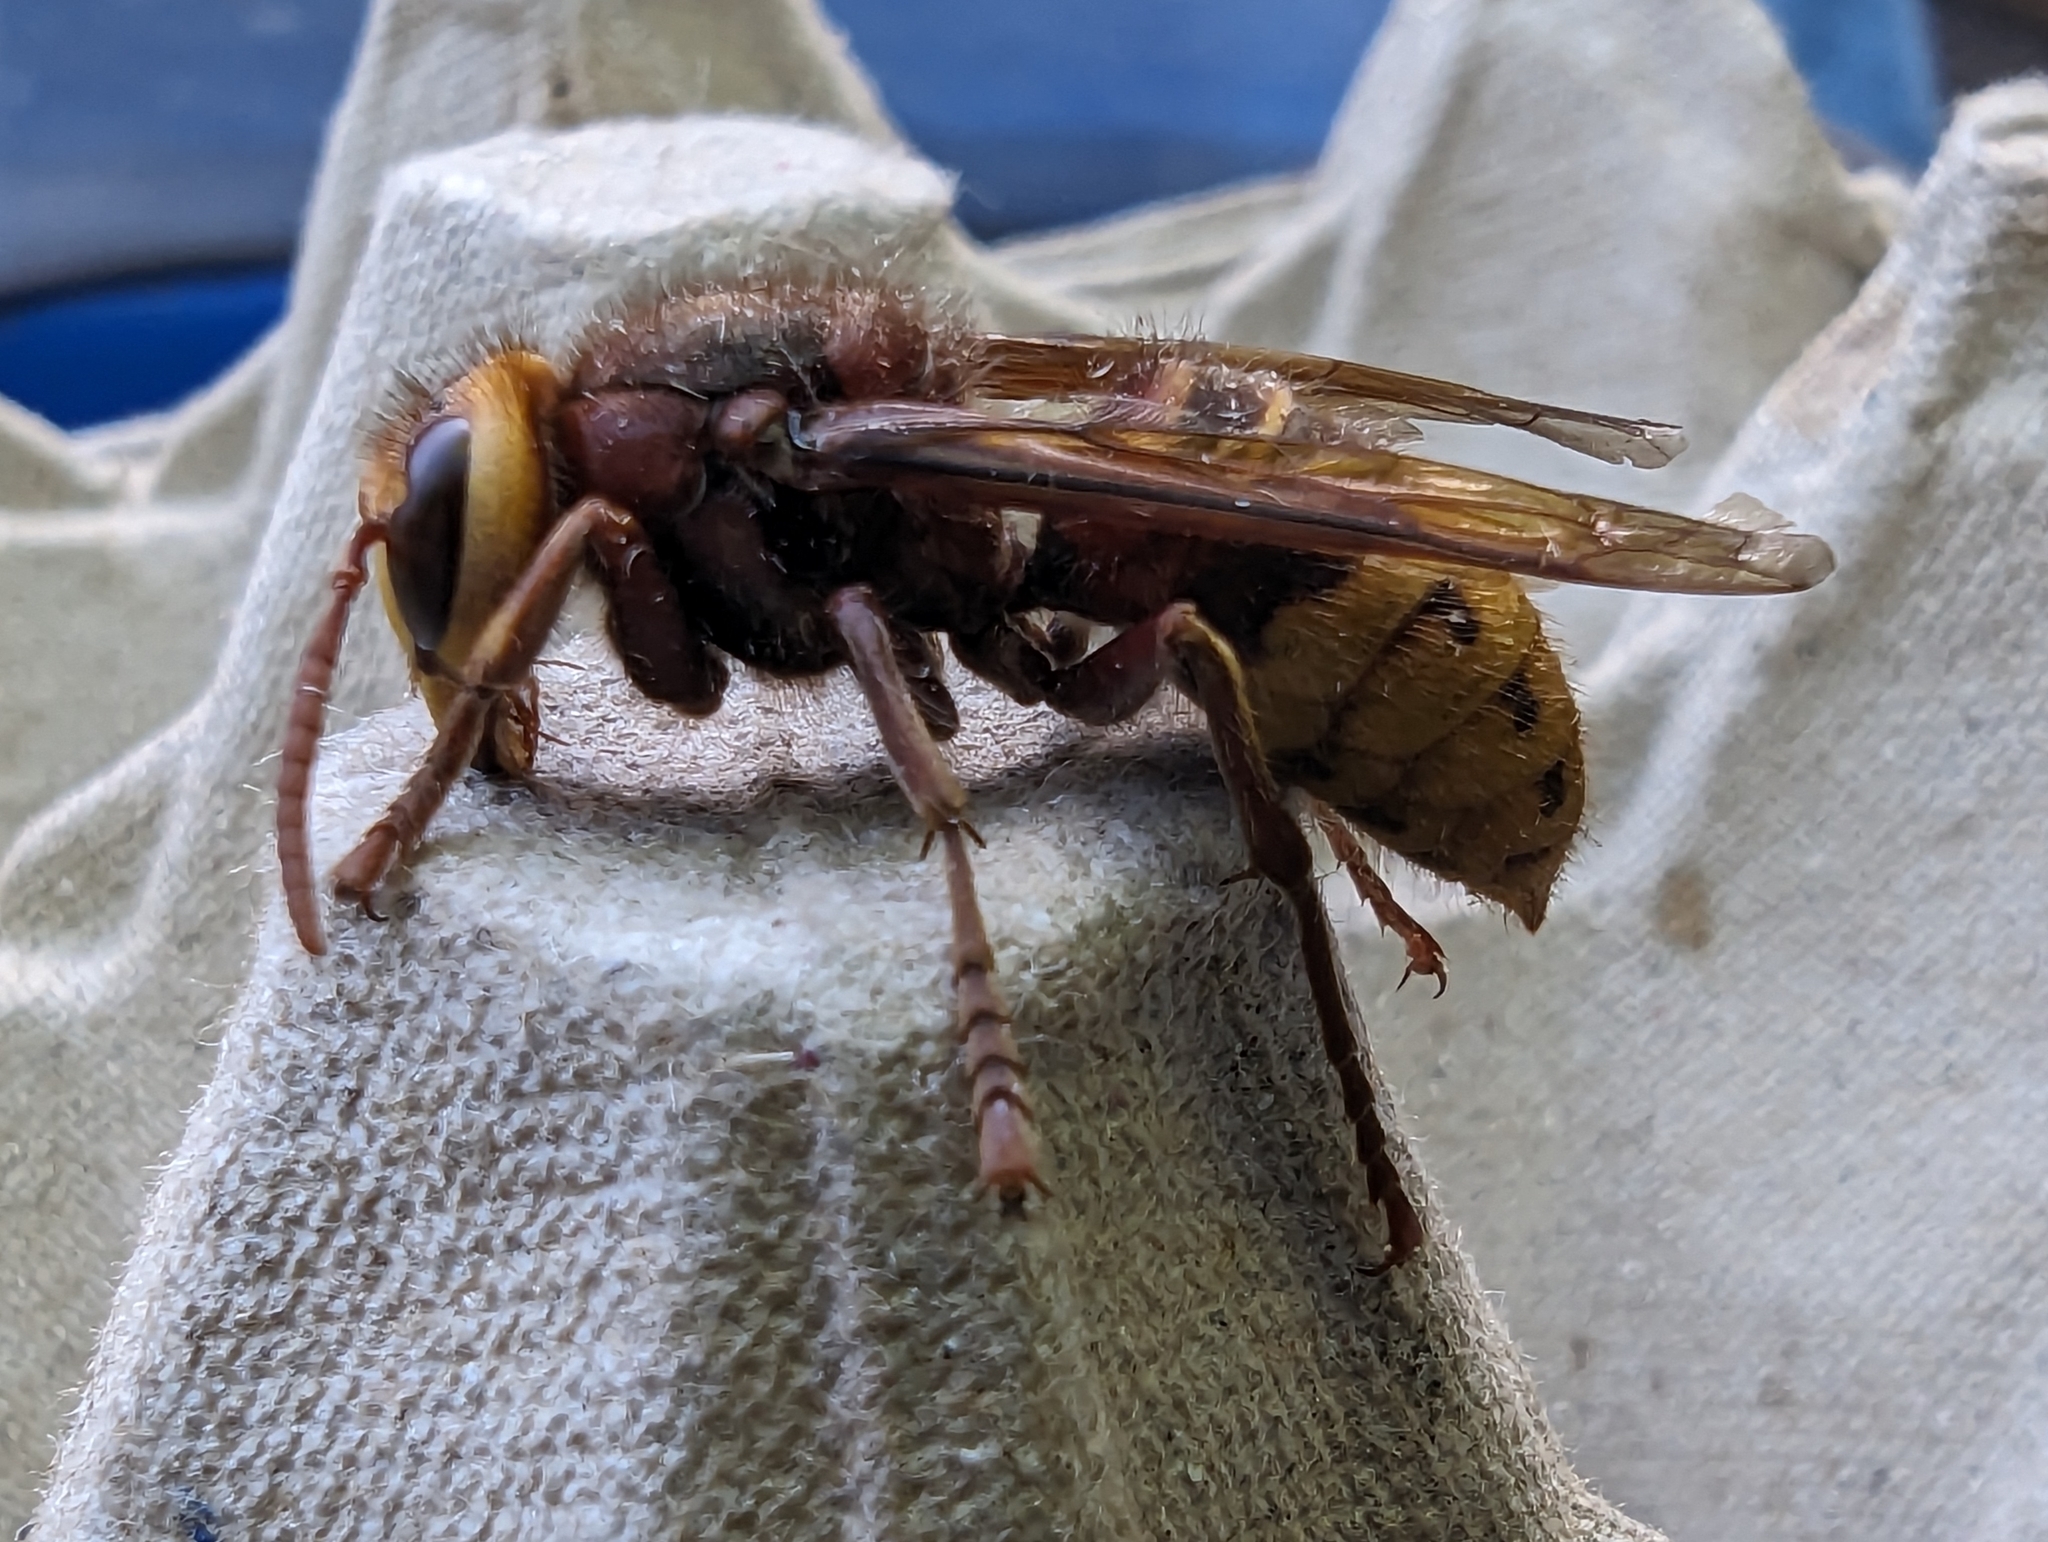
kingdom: Animalia
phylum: Arthropoda
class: Insecta
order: Hymenoptera
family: Vespidae
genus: Vespa
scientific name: Vespa crabro
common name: Hornet
